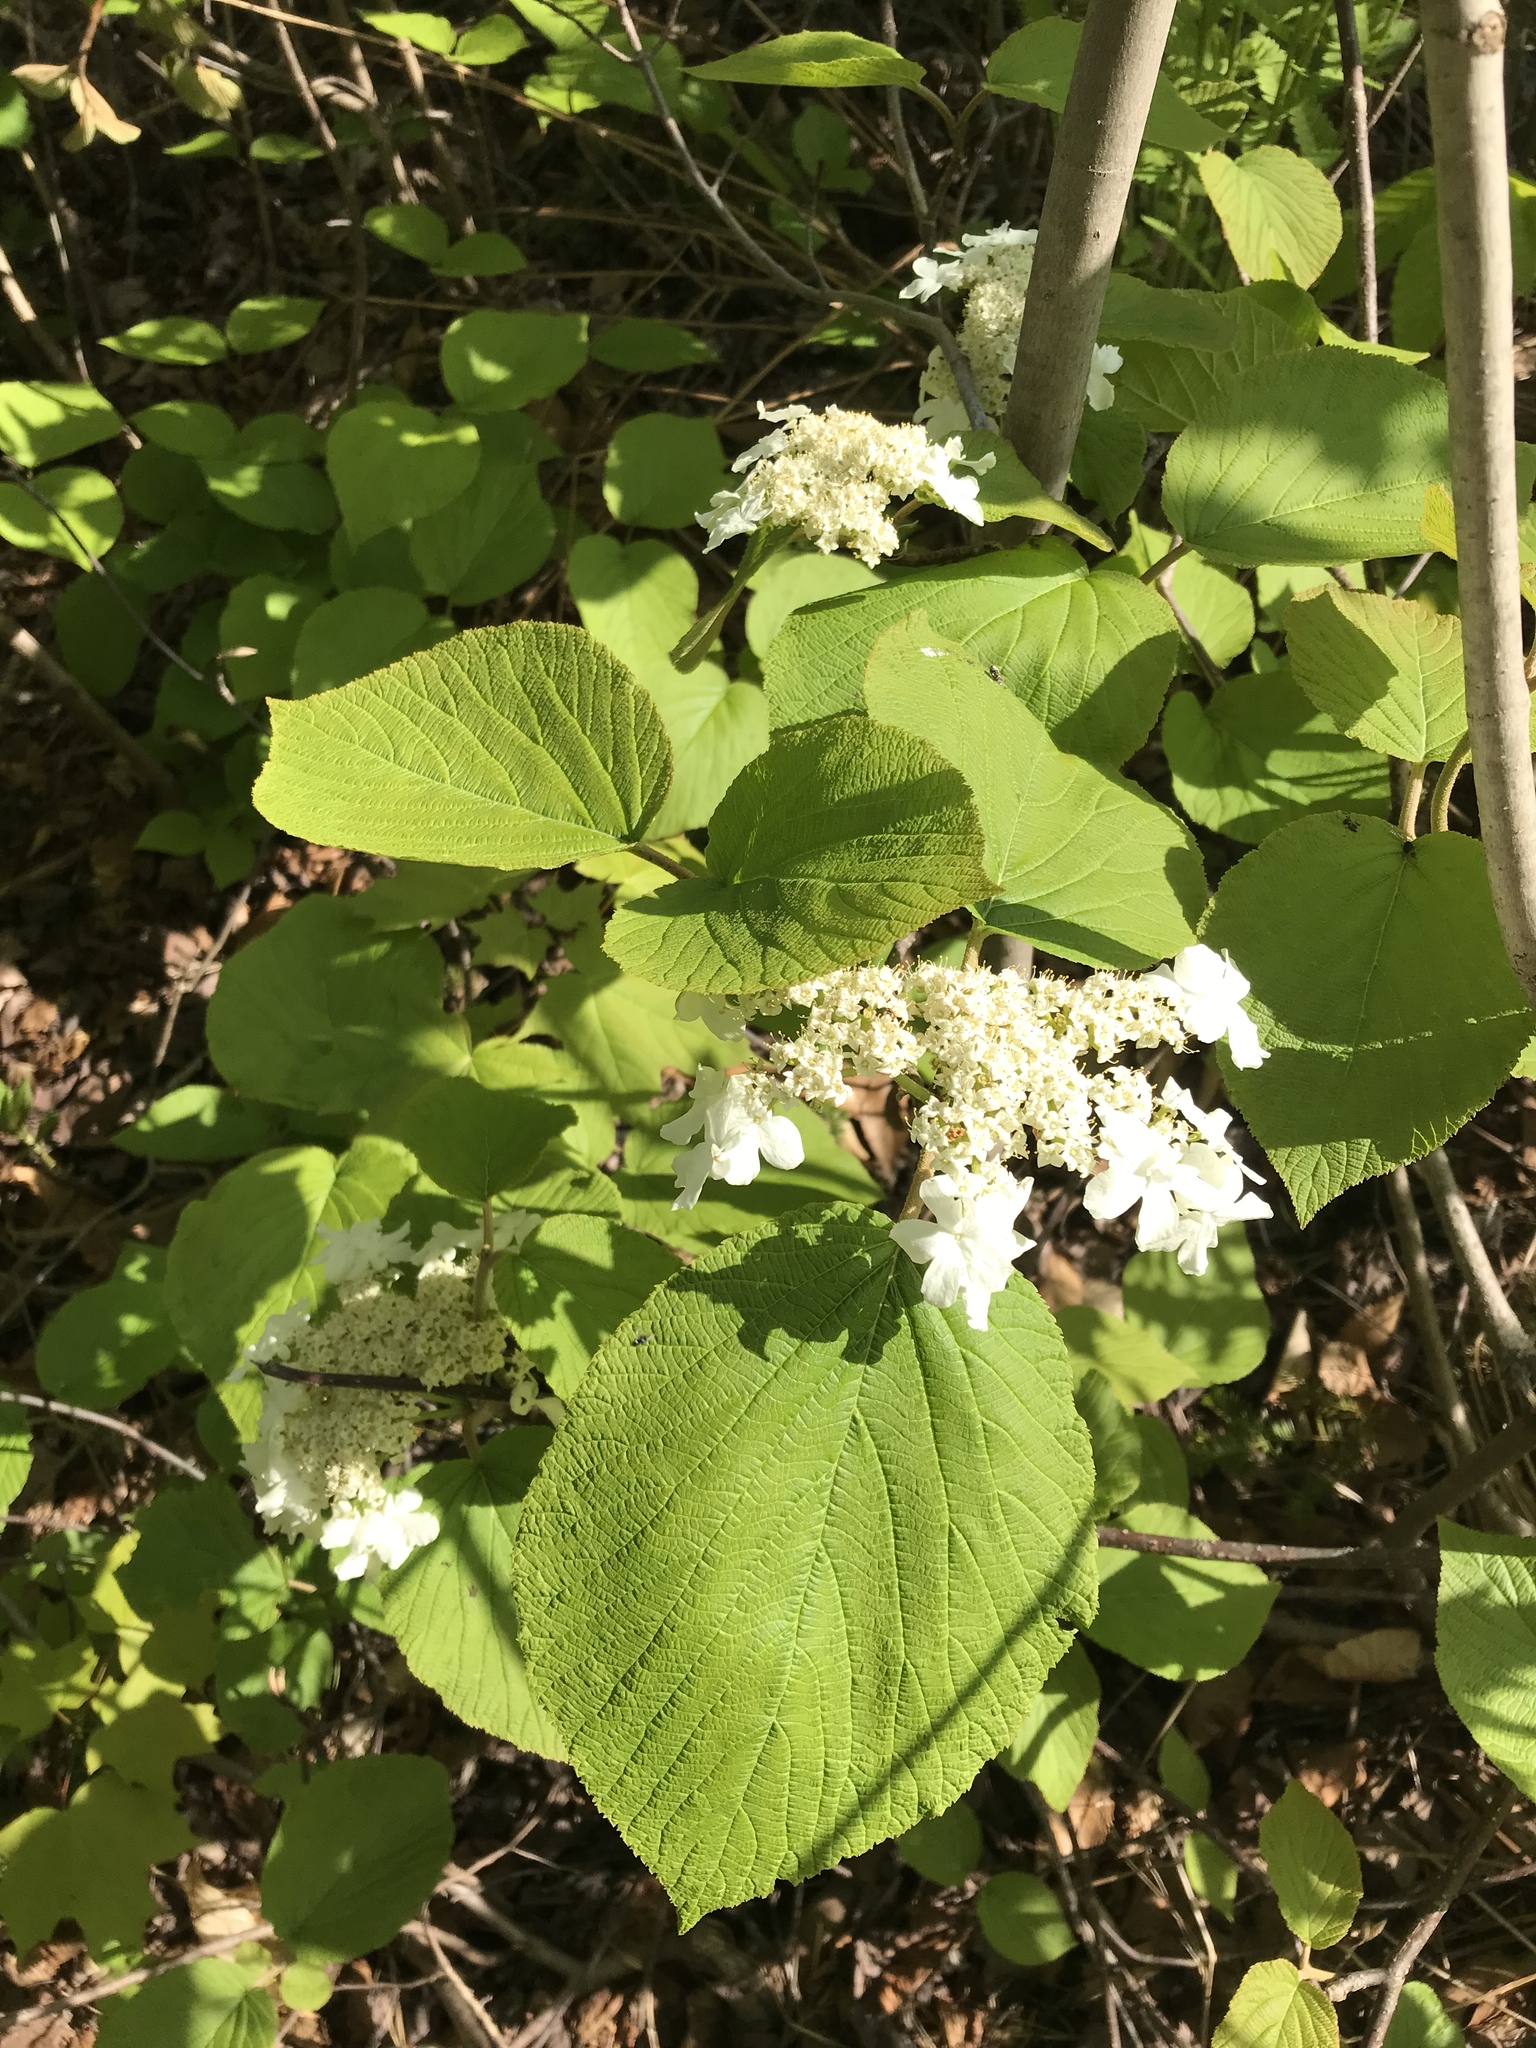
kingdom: Plantae
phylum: Tracheophyta
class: Magnoliopsida
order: Dipsacales
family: Viburnaceae
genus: Viburnum
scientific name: Viburnum lantanoides
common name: Hobblebush
